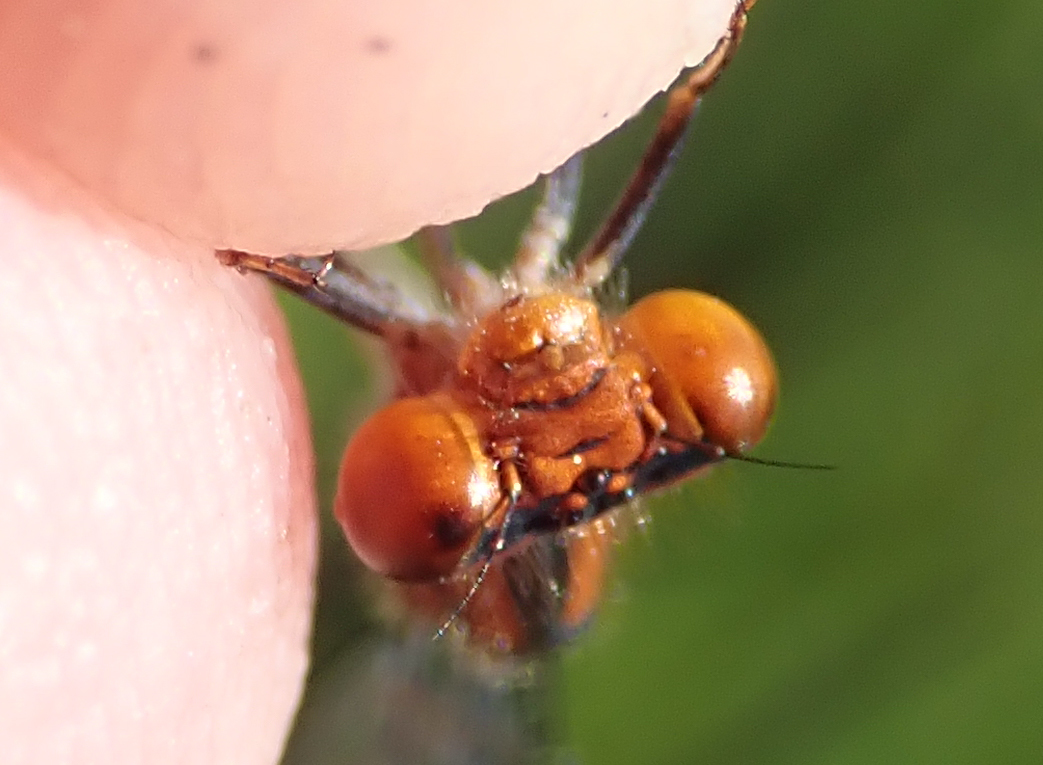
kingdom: Animalia
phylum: Arthropoda
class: Insecta
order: Odonata
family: Coenagrionidae
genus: Pseudagrion
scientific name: Pseudagrion rufostigma
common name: Dark sprite
